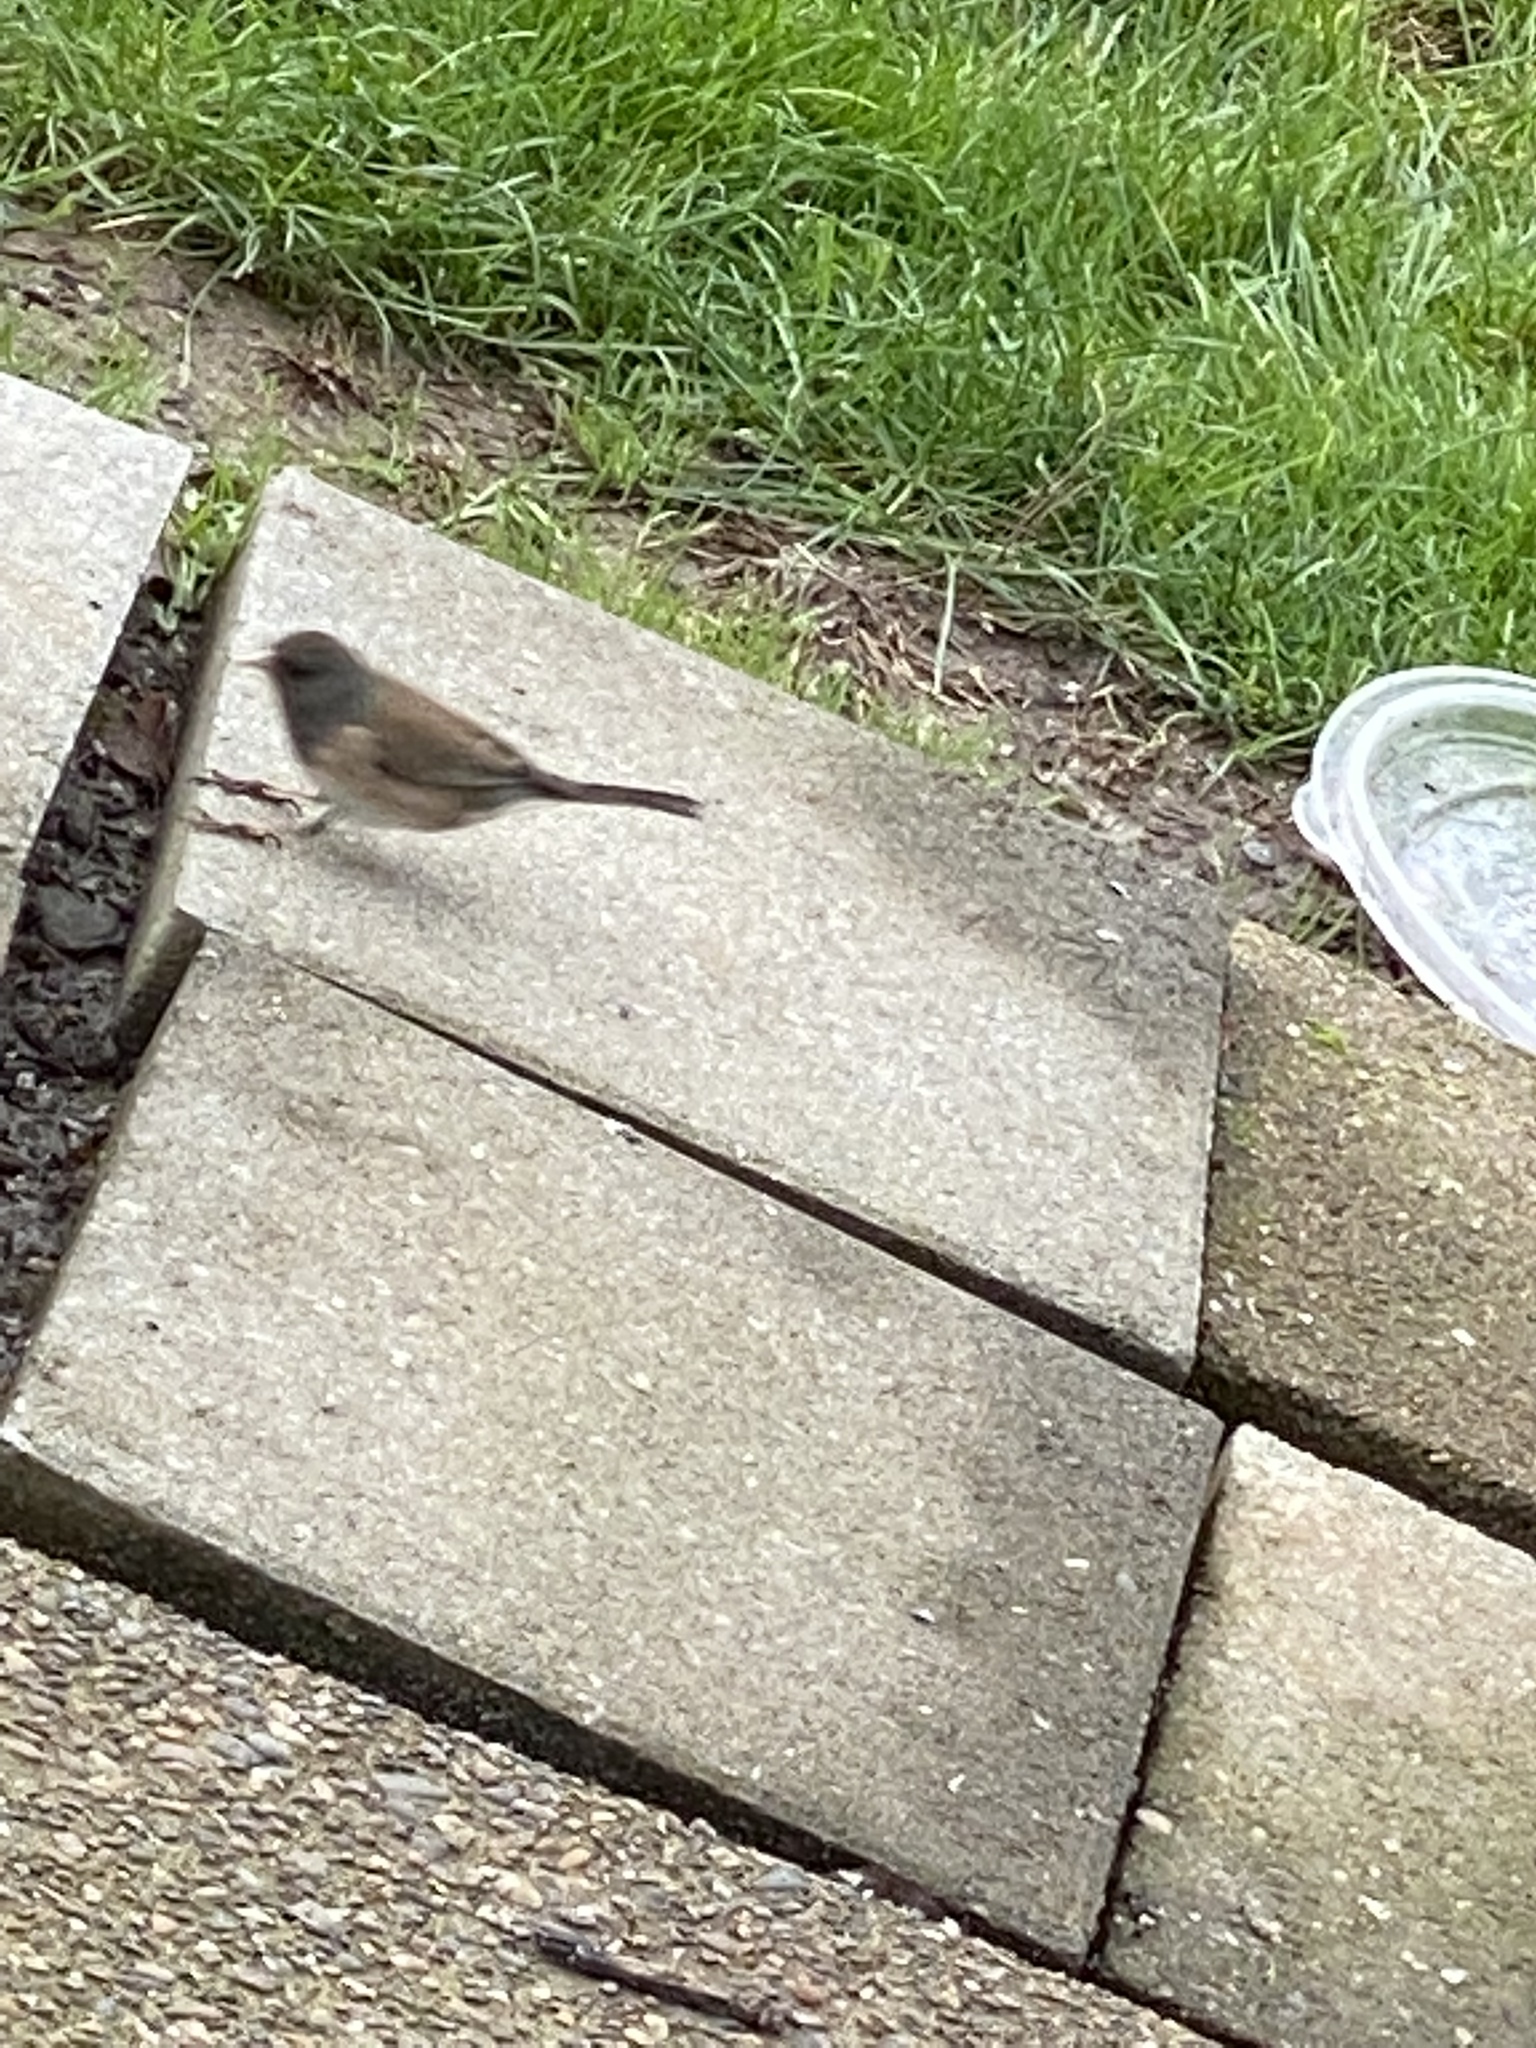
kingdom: Animalia
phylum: Chordata
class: Aves
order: Passeriformes
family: Passerellidae
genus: Junco
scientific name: Junco hyemalis
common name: Dark-eyed junco
